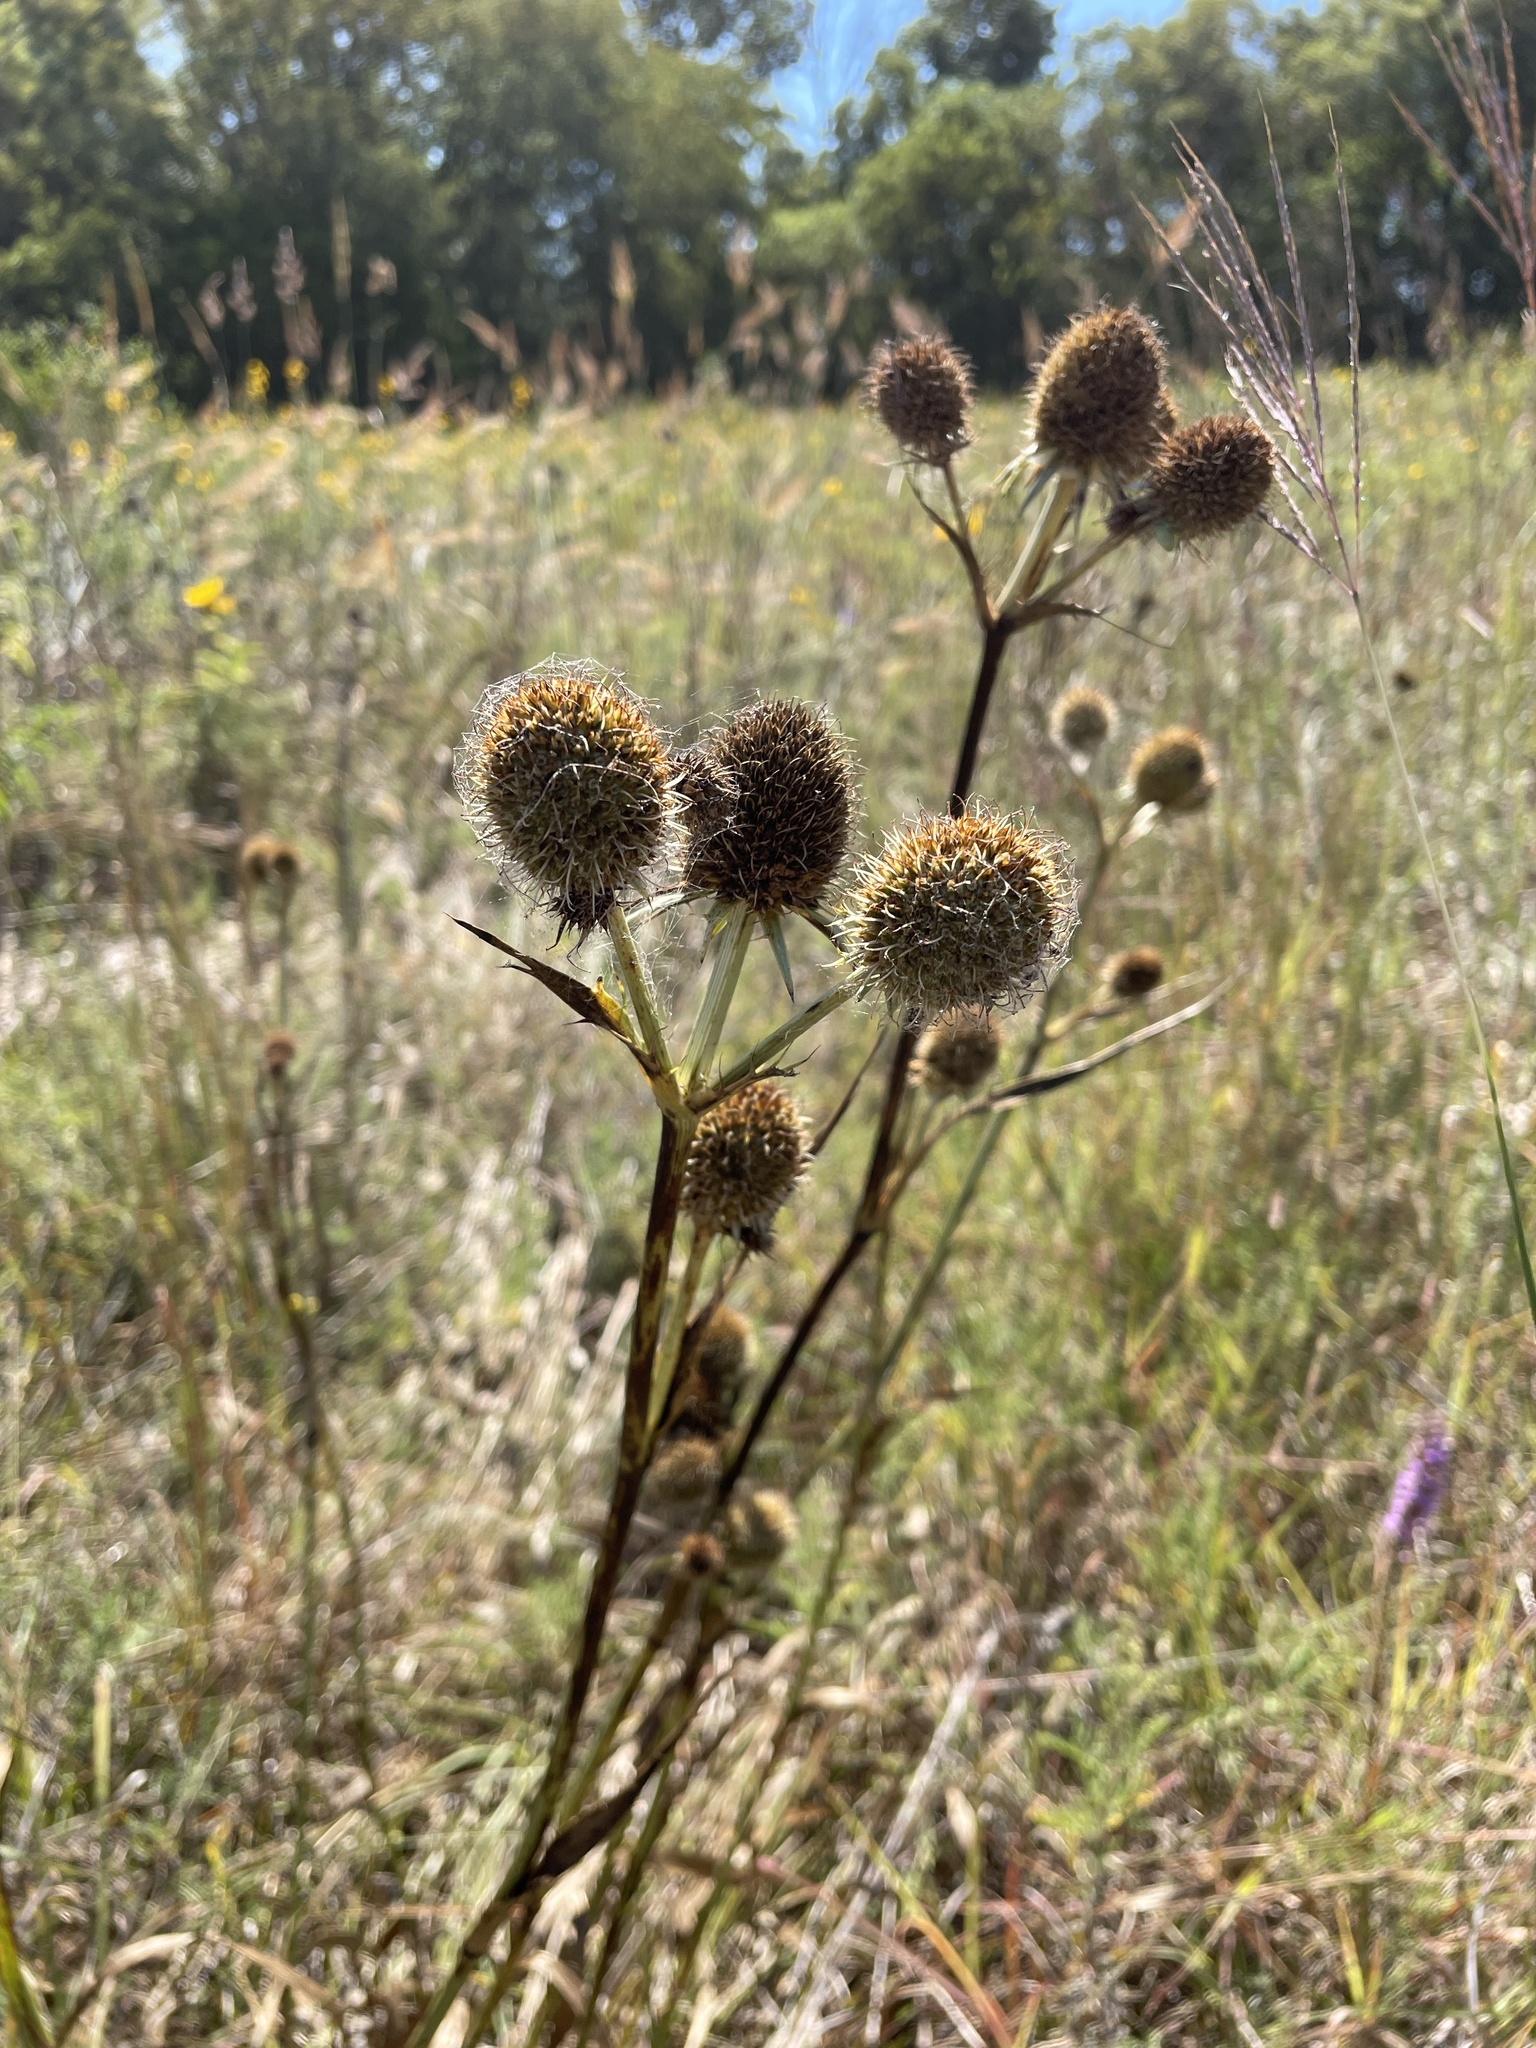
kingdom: Plantae
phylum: Tracheophyta
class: Magnoliopsida
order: Apiales
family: Apiaceae
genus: Eryngium
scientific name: Eryngium yuccifolium
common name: Button eryngo
